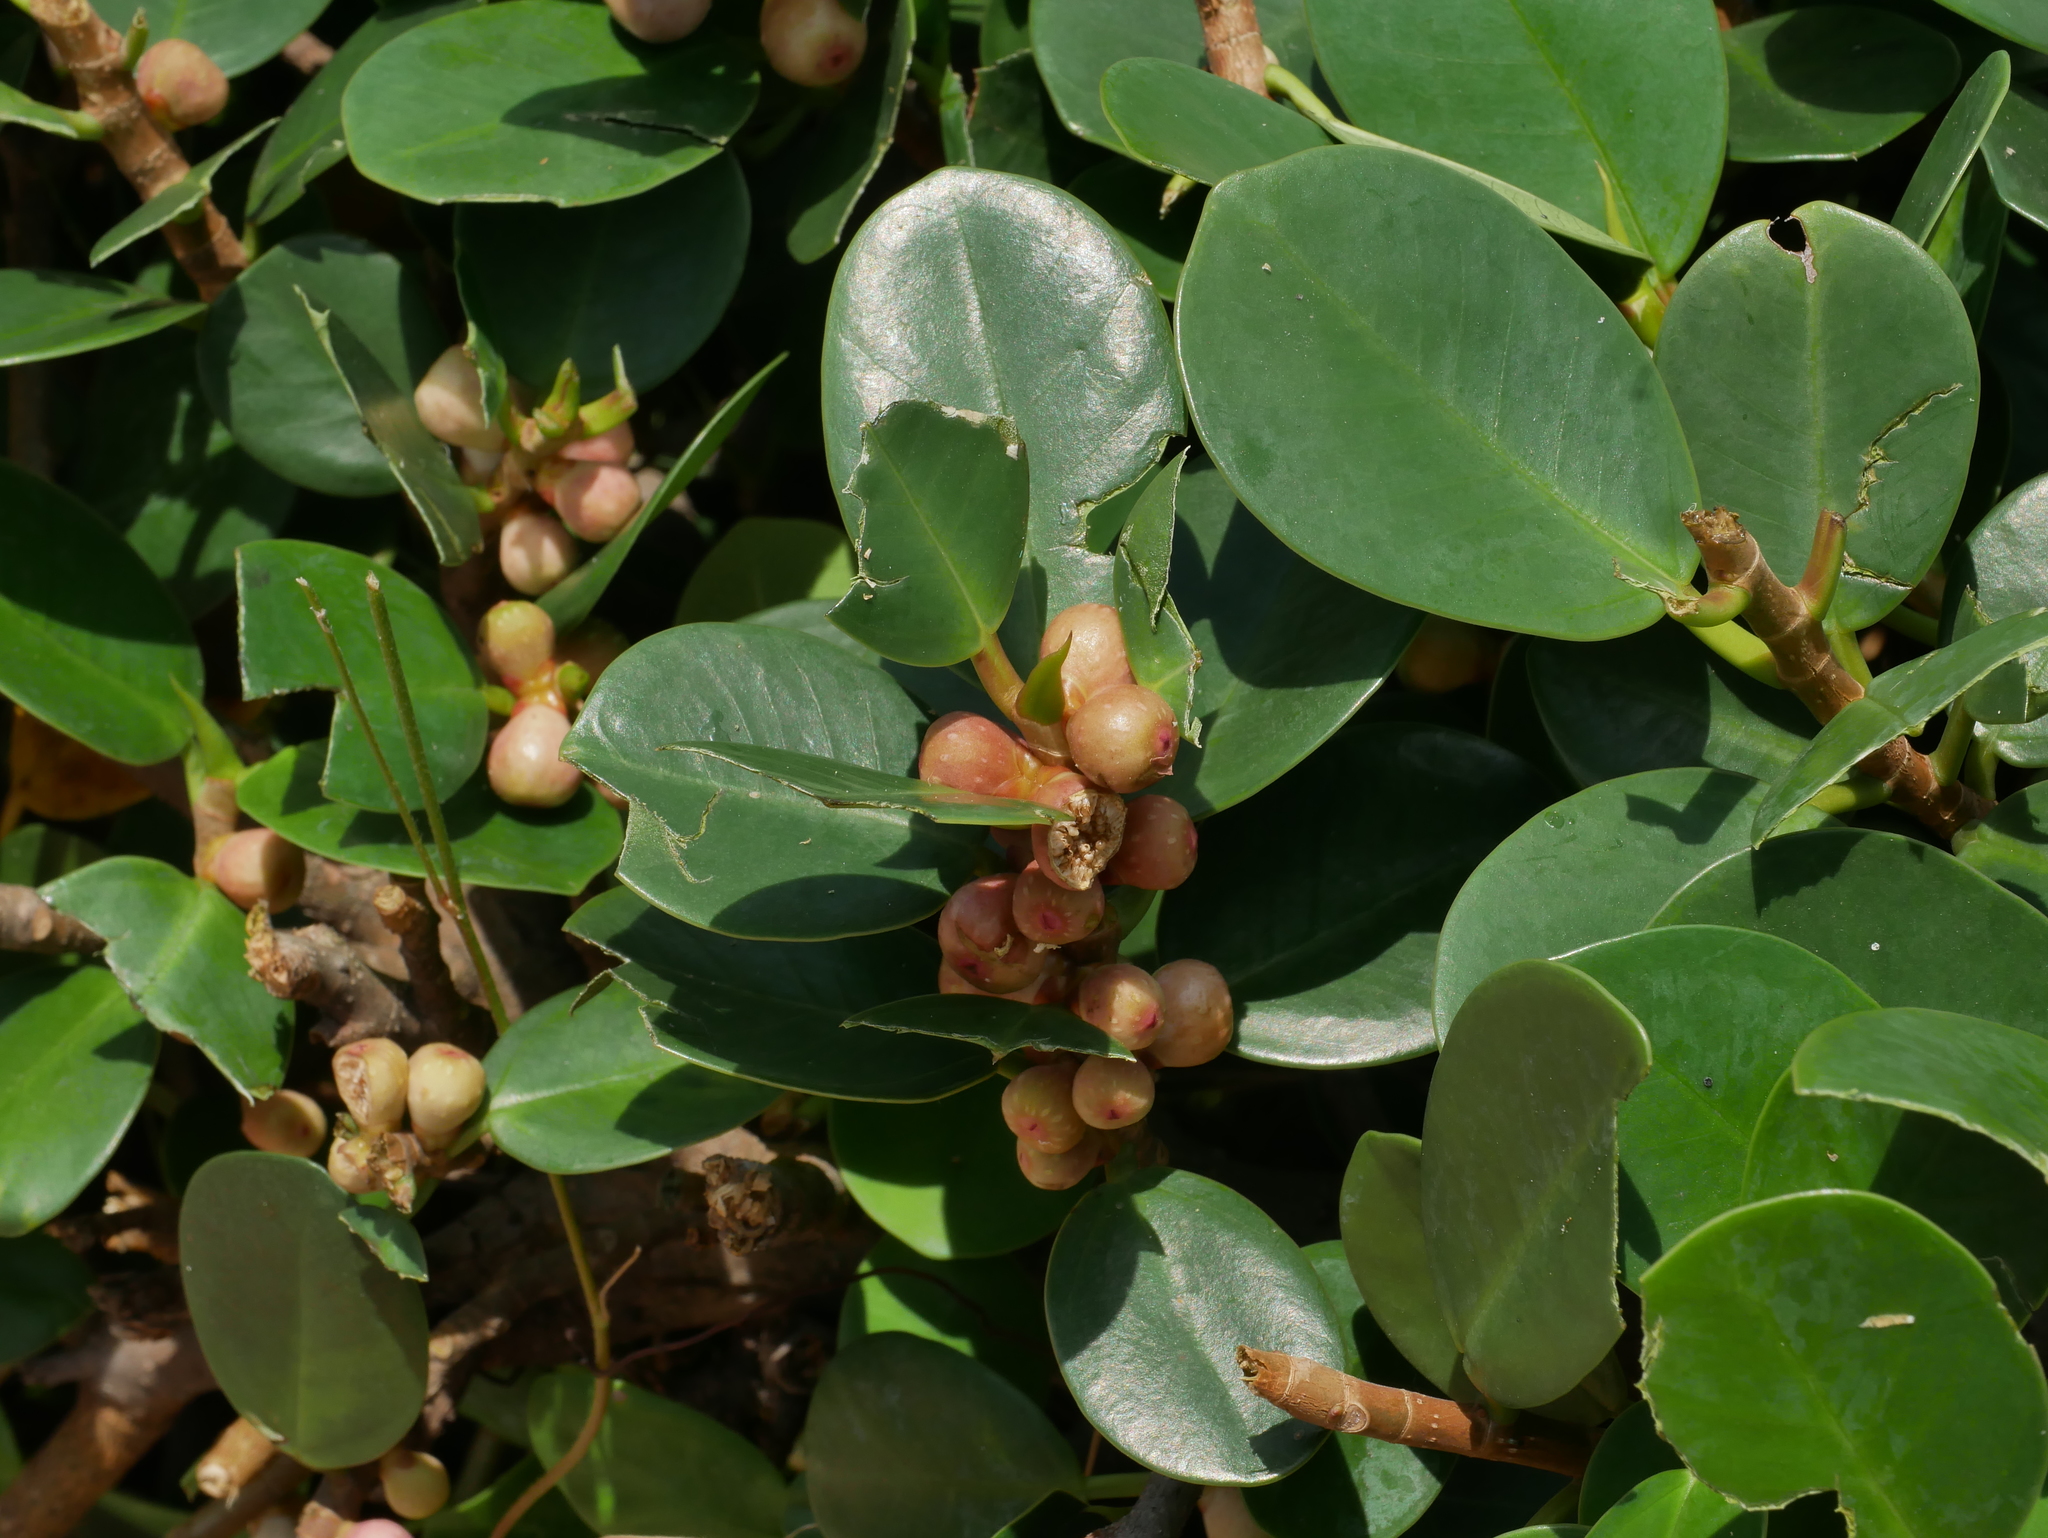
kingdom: Plantae
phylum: Tracheophyta
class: Magnoliopsida
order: Rosales
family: Moraceae
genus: Ficus
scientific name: Ficus microcarpa
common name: Chinese banyan
